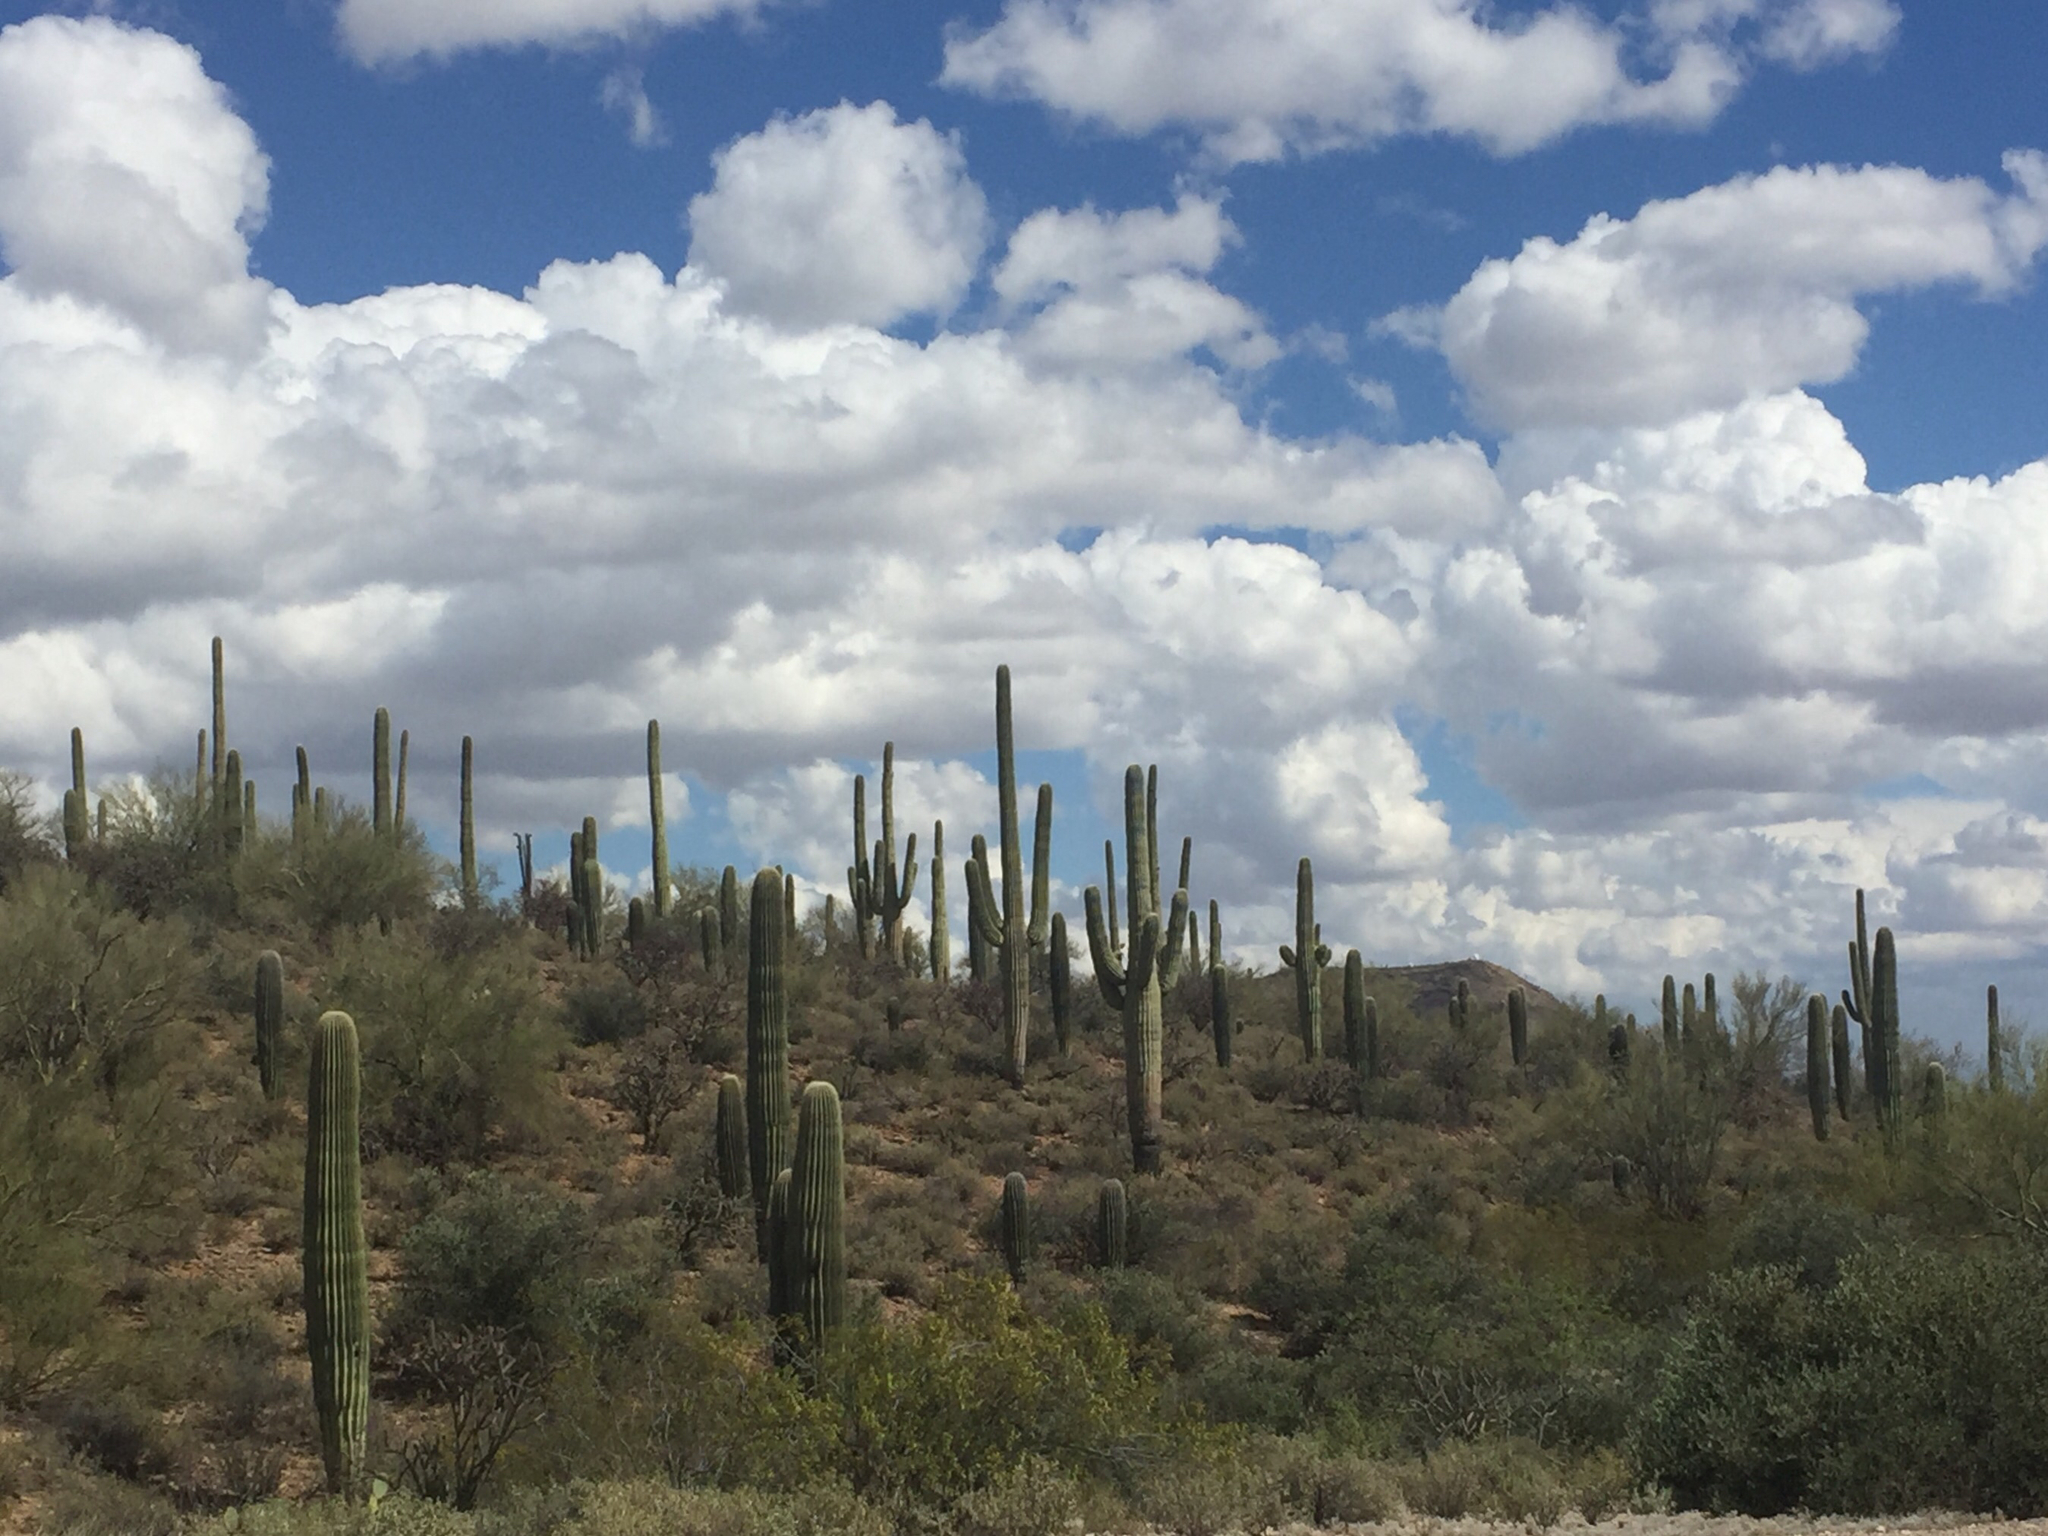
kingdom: Plantae
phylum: Tracheophyta
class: Magnoliopsida
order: Caryophyllales
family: Cactaceae
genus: Carnegiea
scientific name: Carnegiea gigantea
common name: Saguaro
